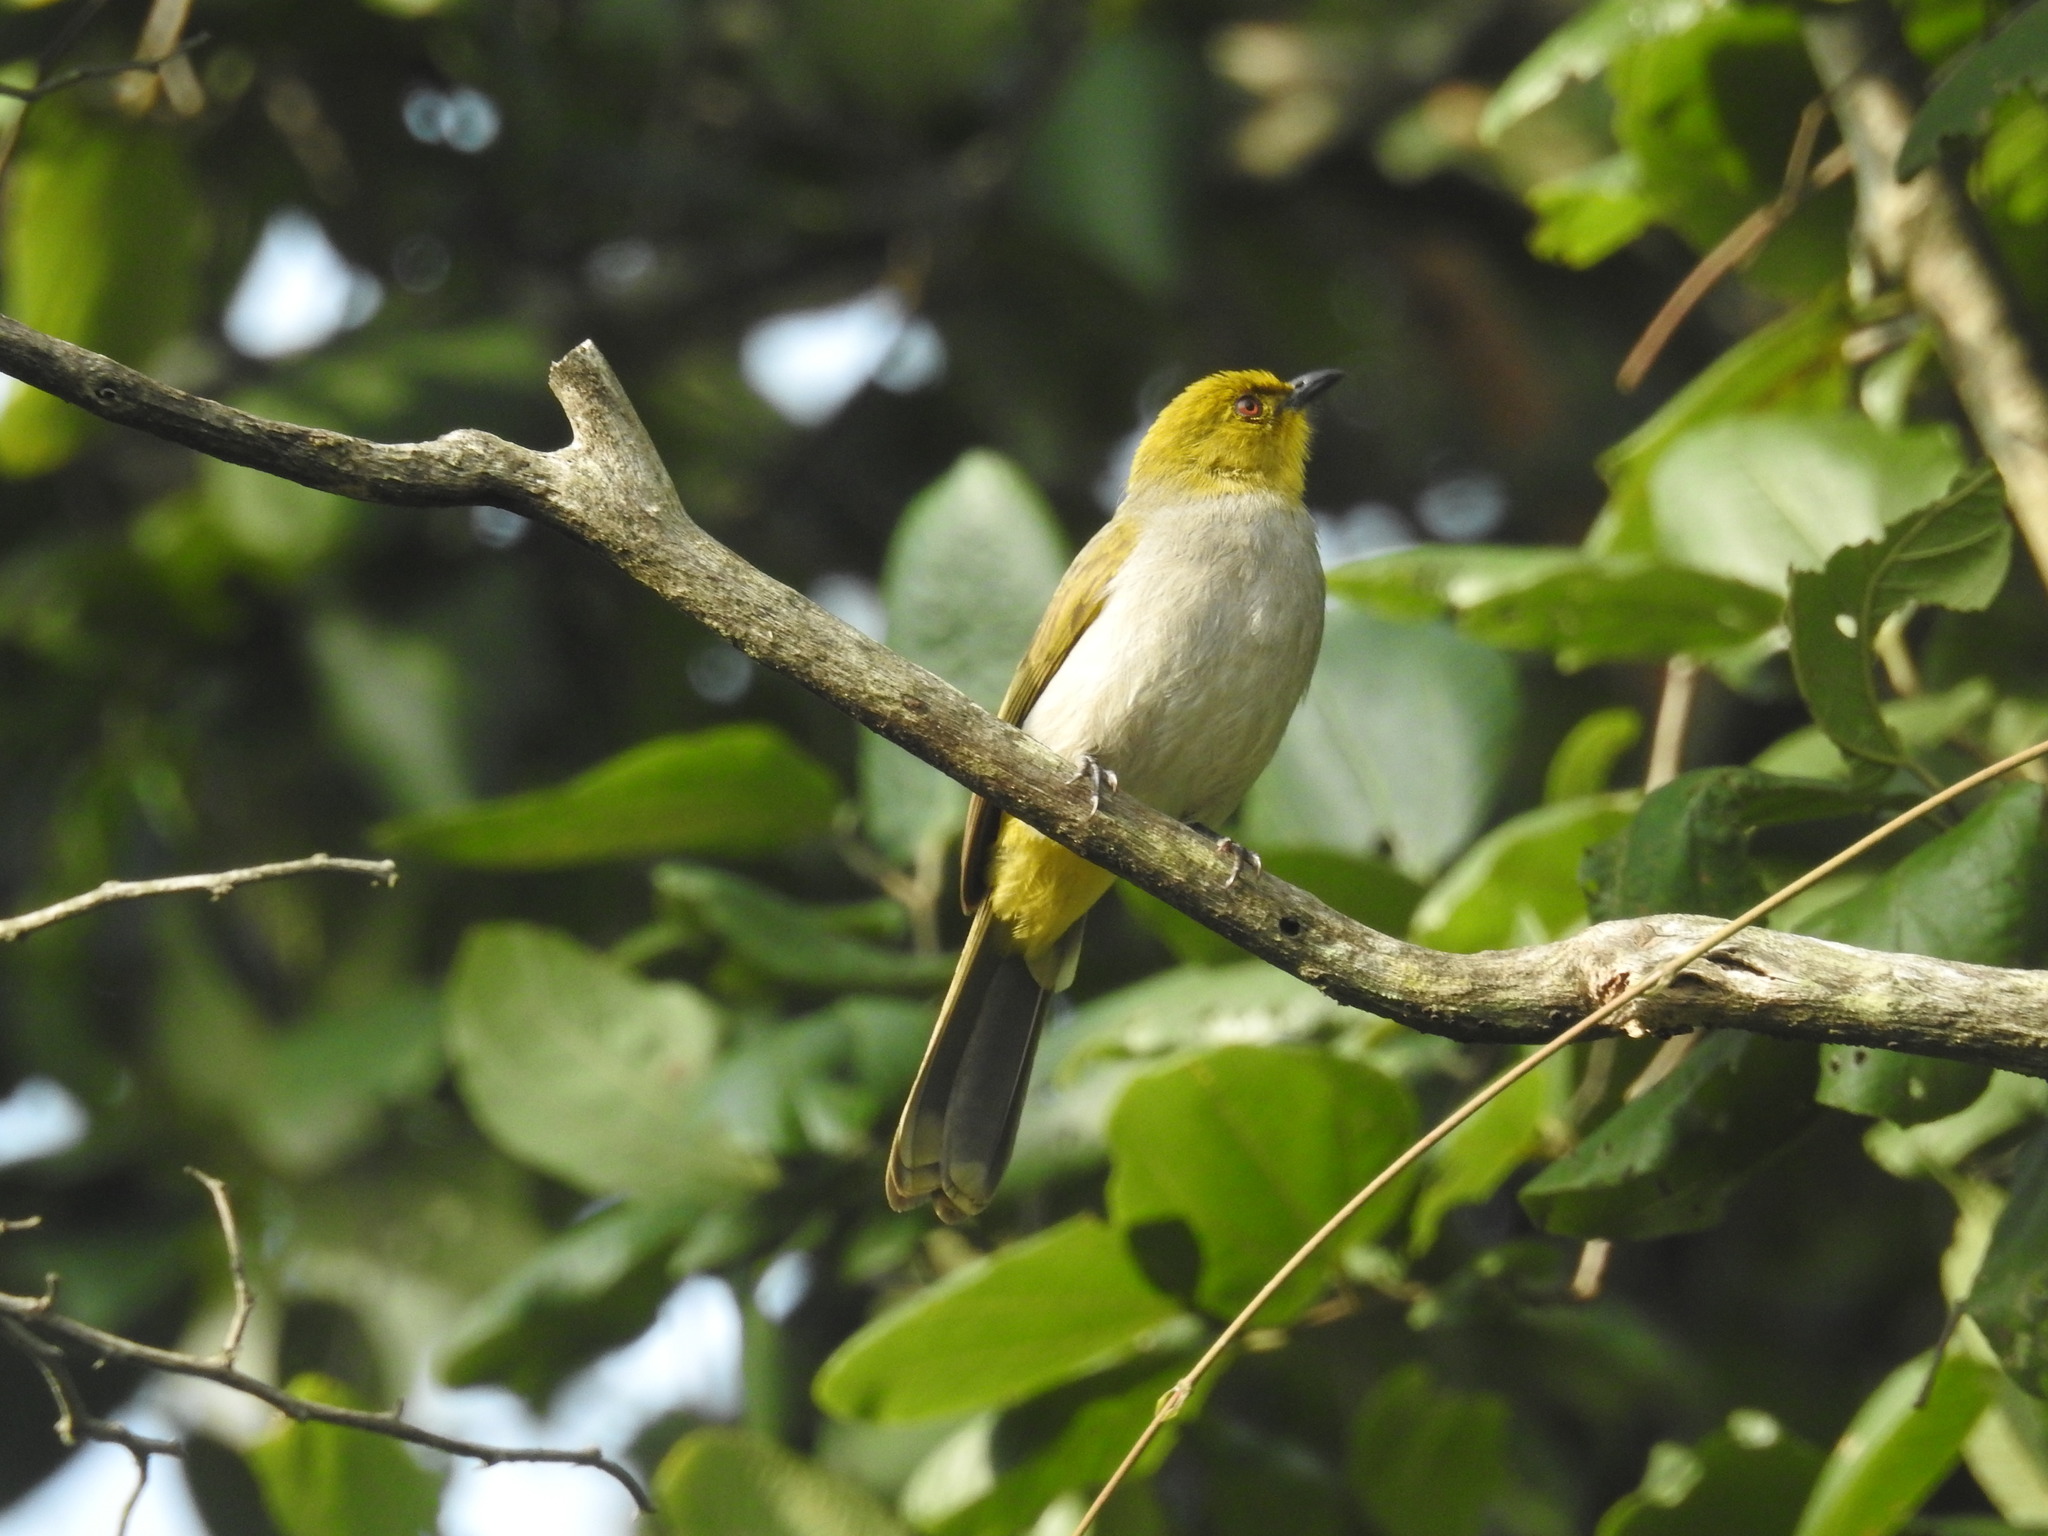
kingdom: Animalia
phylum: Chordata
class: Aves
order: Passeriformes
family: Pycnonotidae
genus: Pycnonotus
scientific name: Pycnonotus xantholaemus
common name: Yellow-throated bulbul
